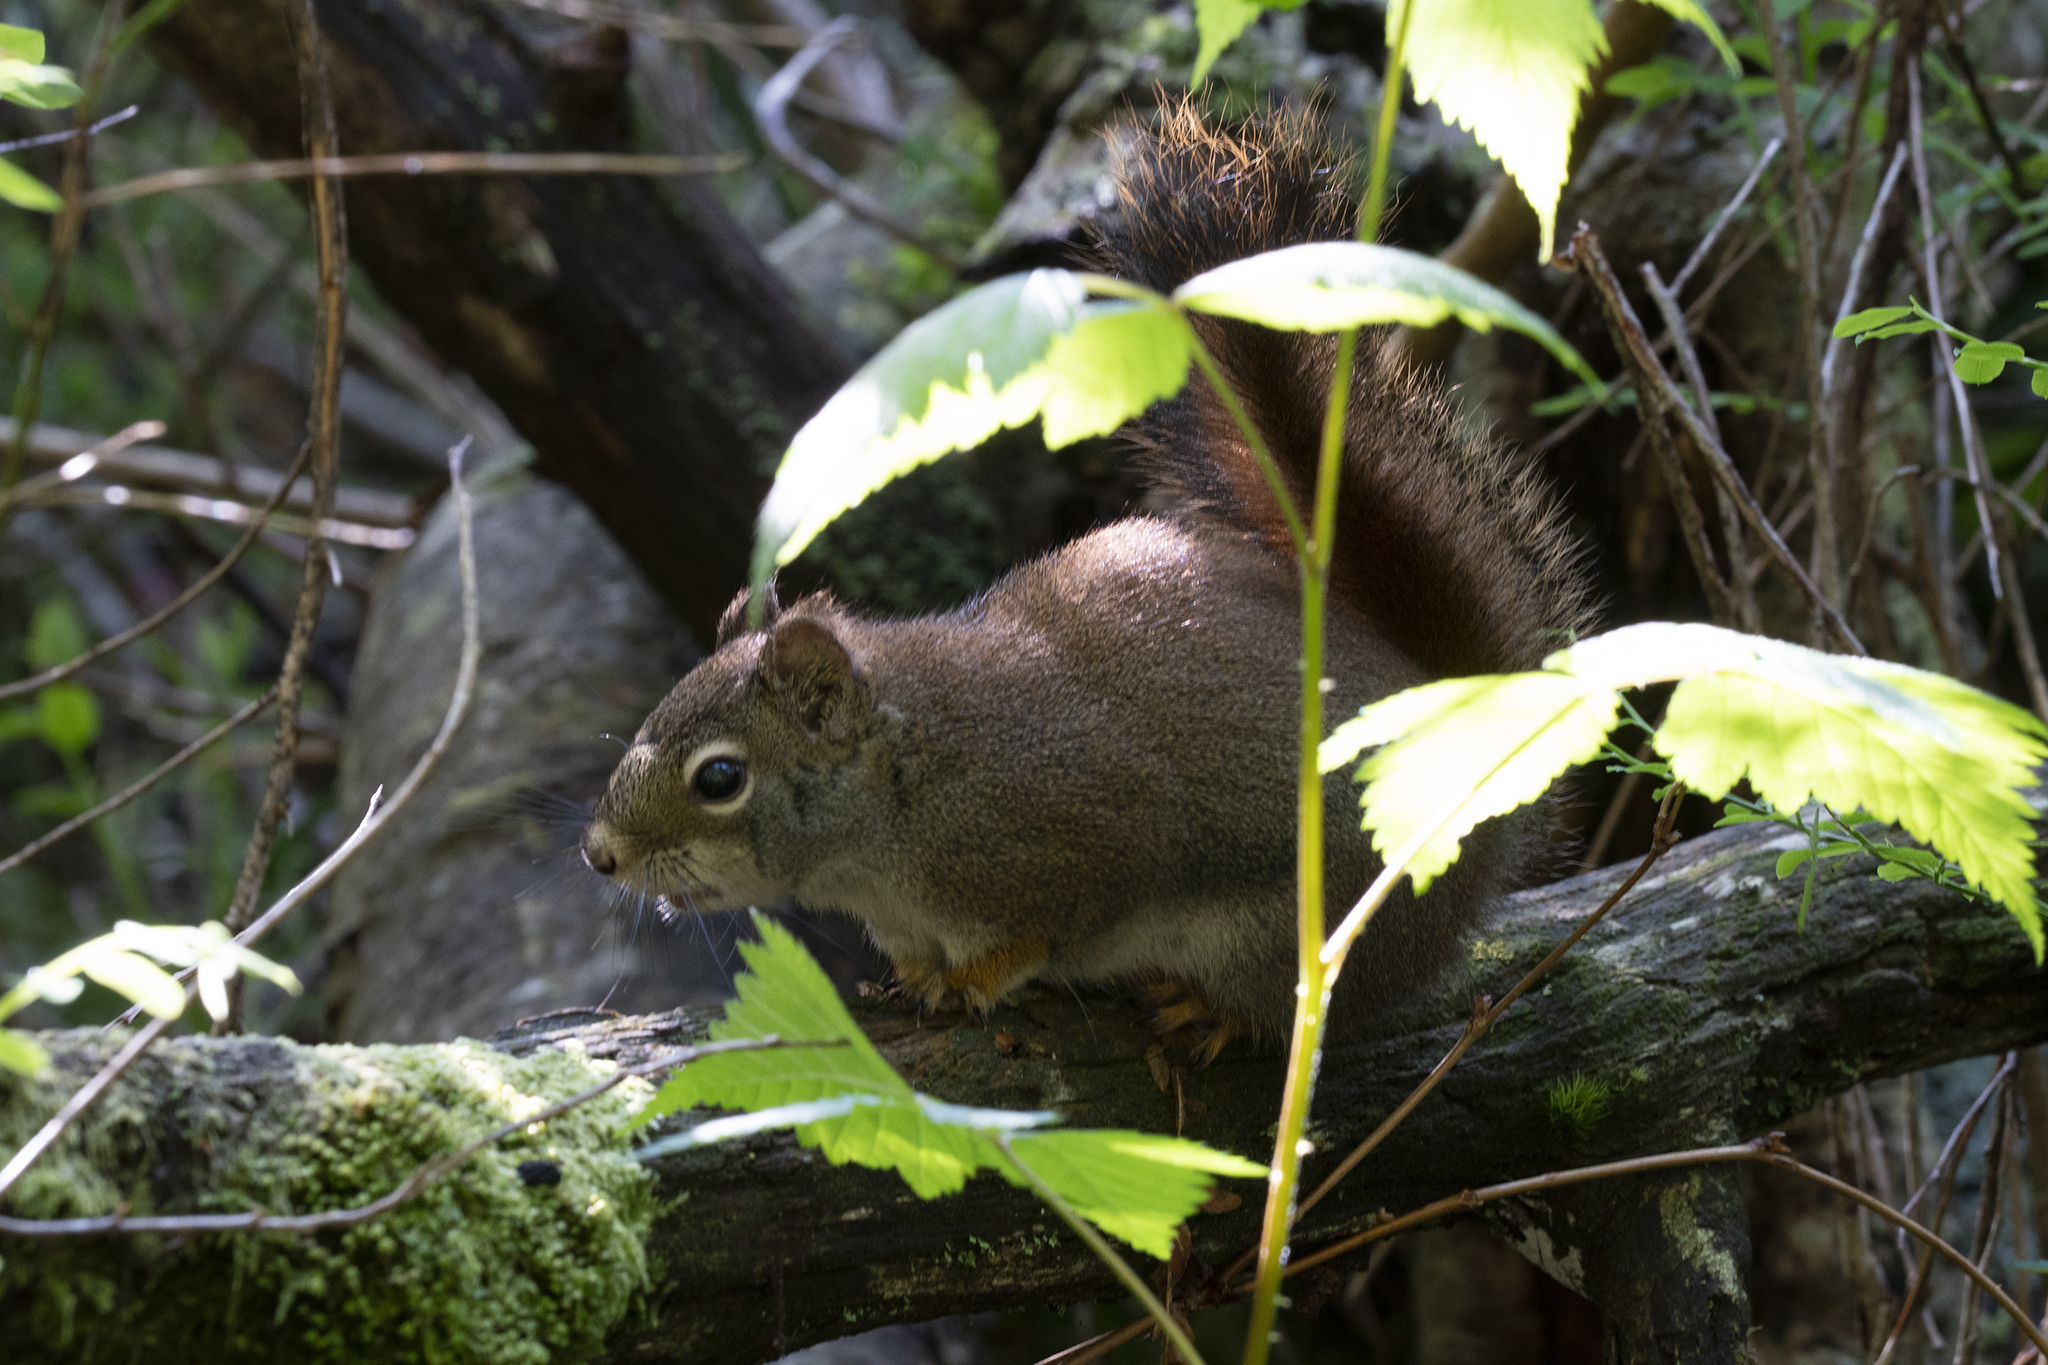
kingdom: Animalia
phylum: Chordata
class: Mammalia
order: Rodentia
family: Sciuridae
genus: Tamiasciurus
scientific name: Tamiasciurus hudsonicus
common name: Red squirrel
